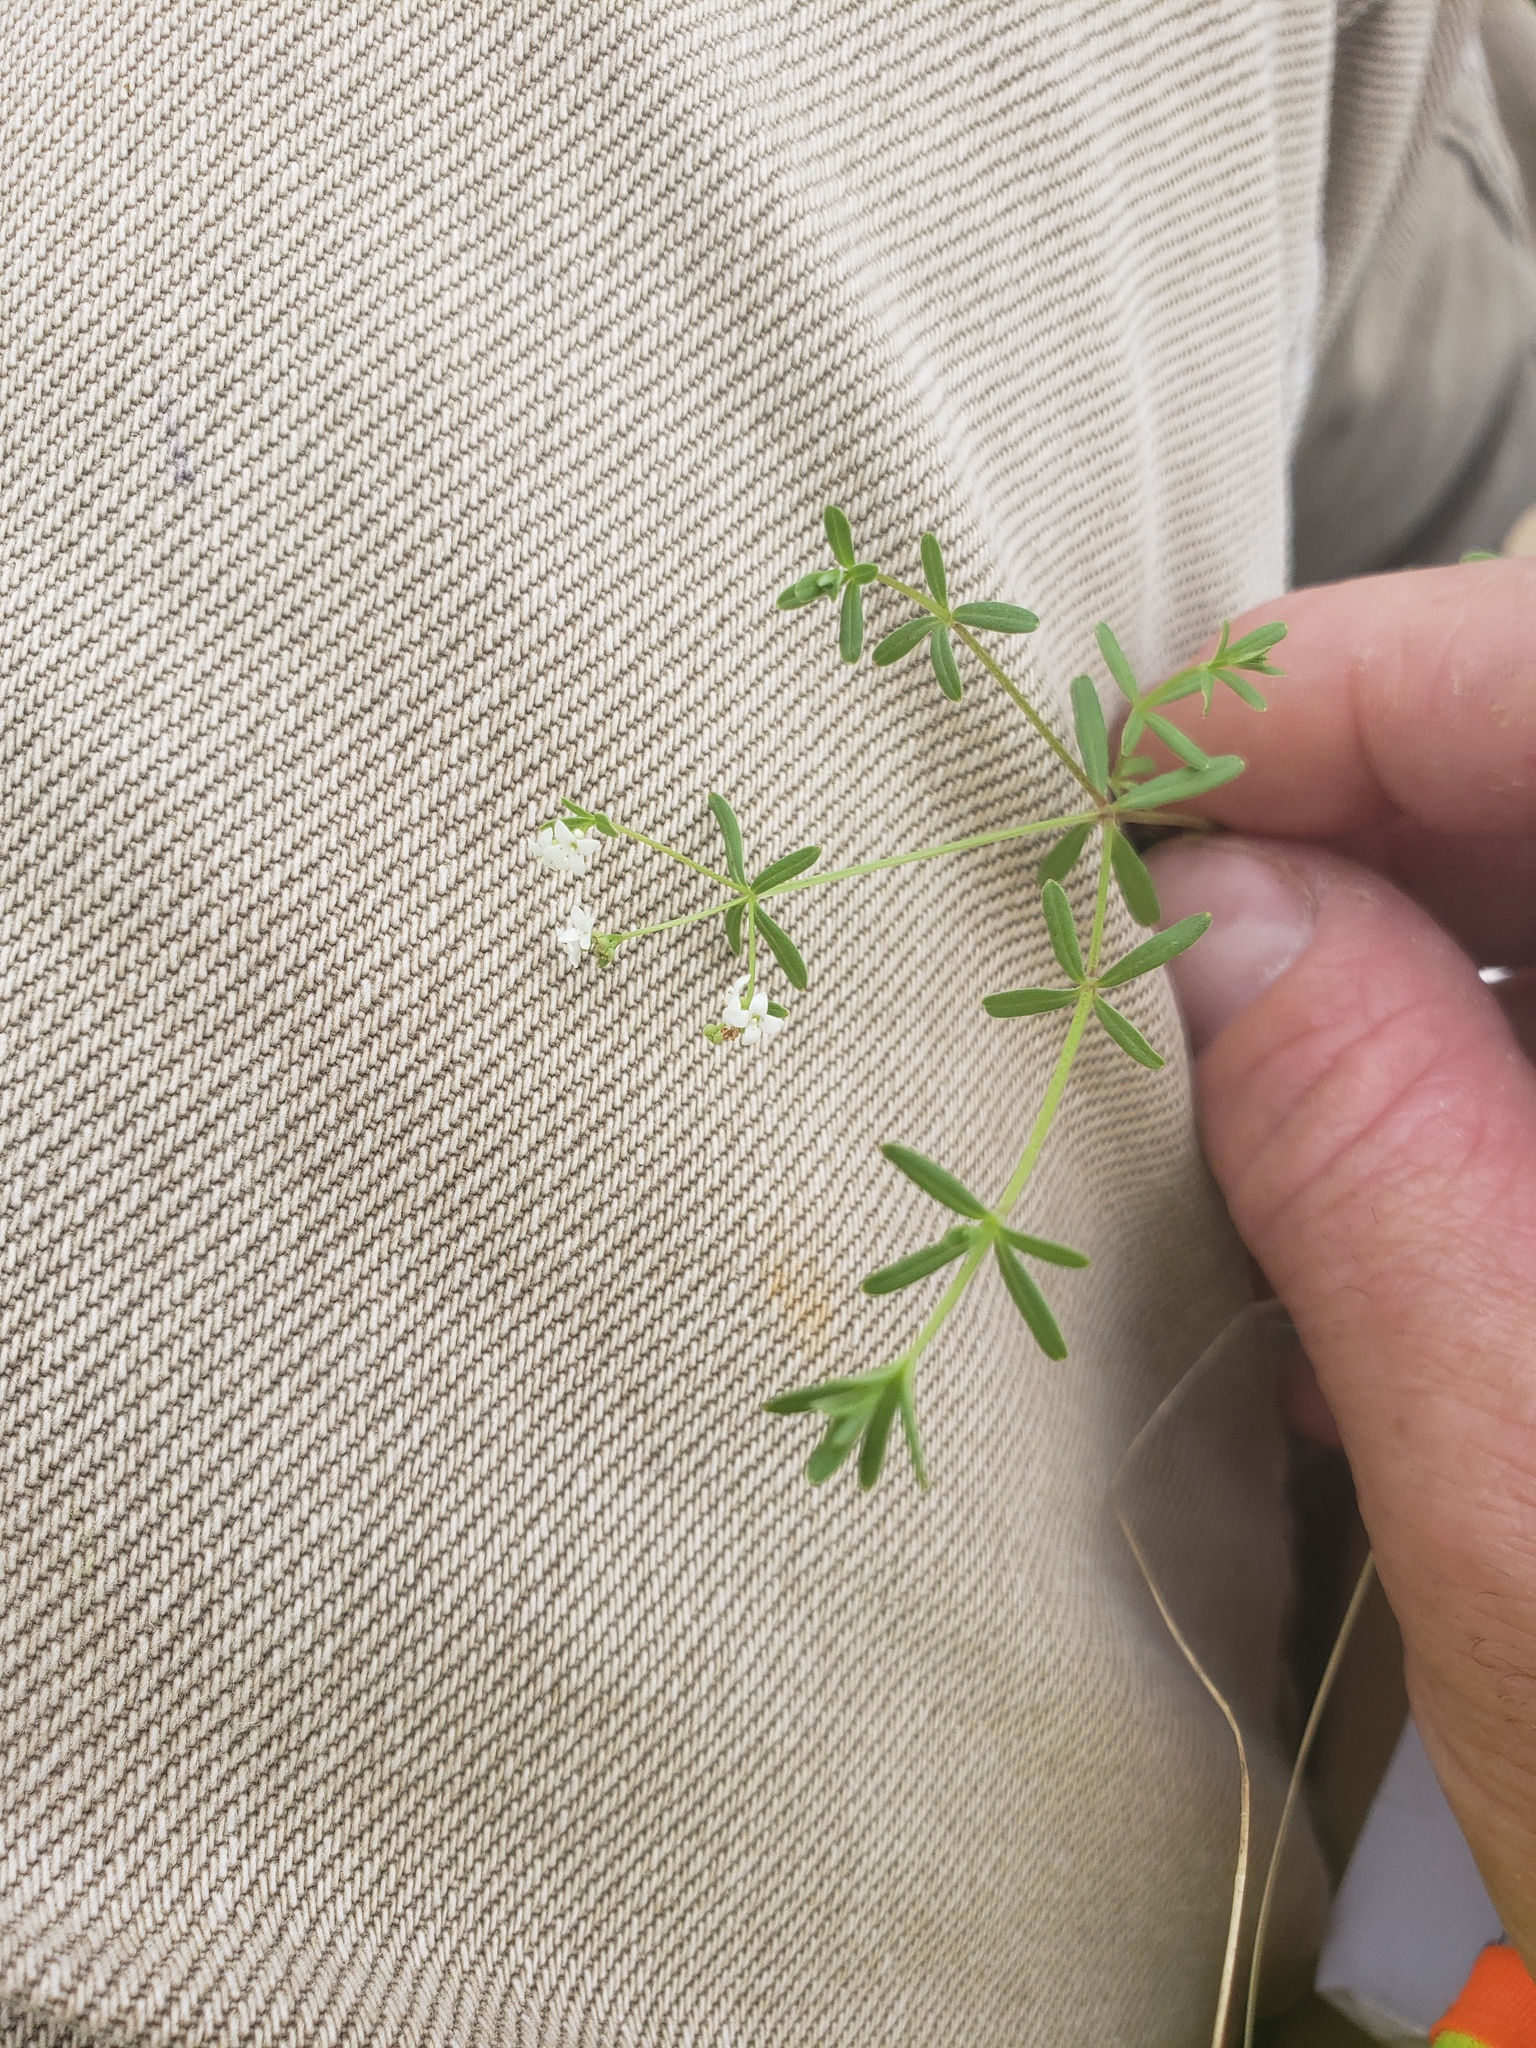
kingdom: Plantae
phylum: Tracheophyta
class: Magnoliopsida
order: Gentianales
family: Rubiaceae
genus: Galium
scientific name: Galium labradoricum
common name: Labrador bedstraw
